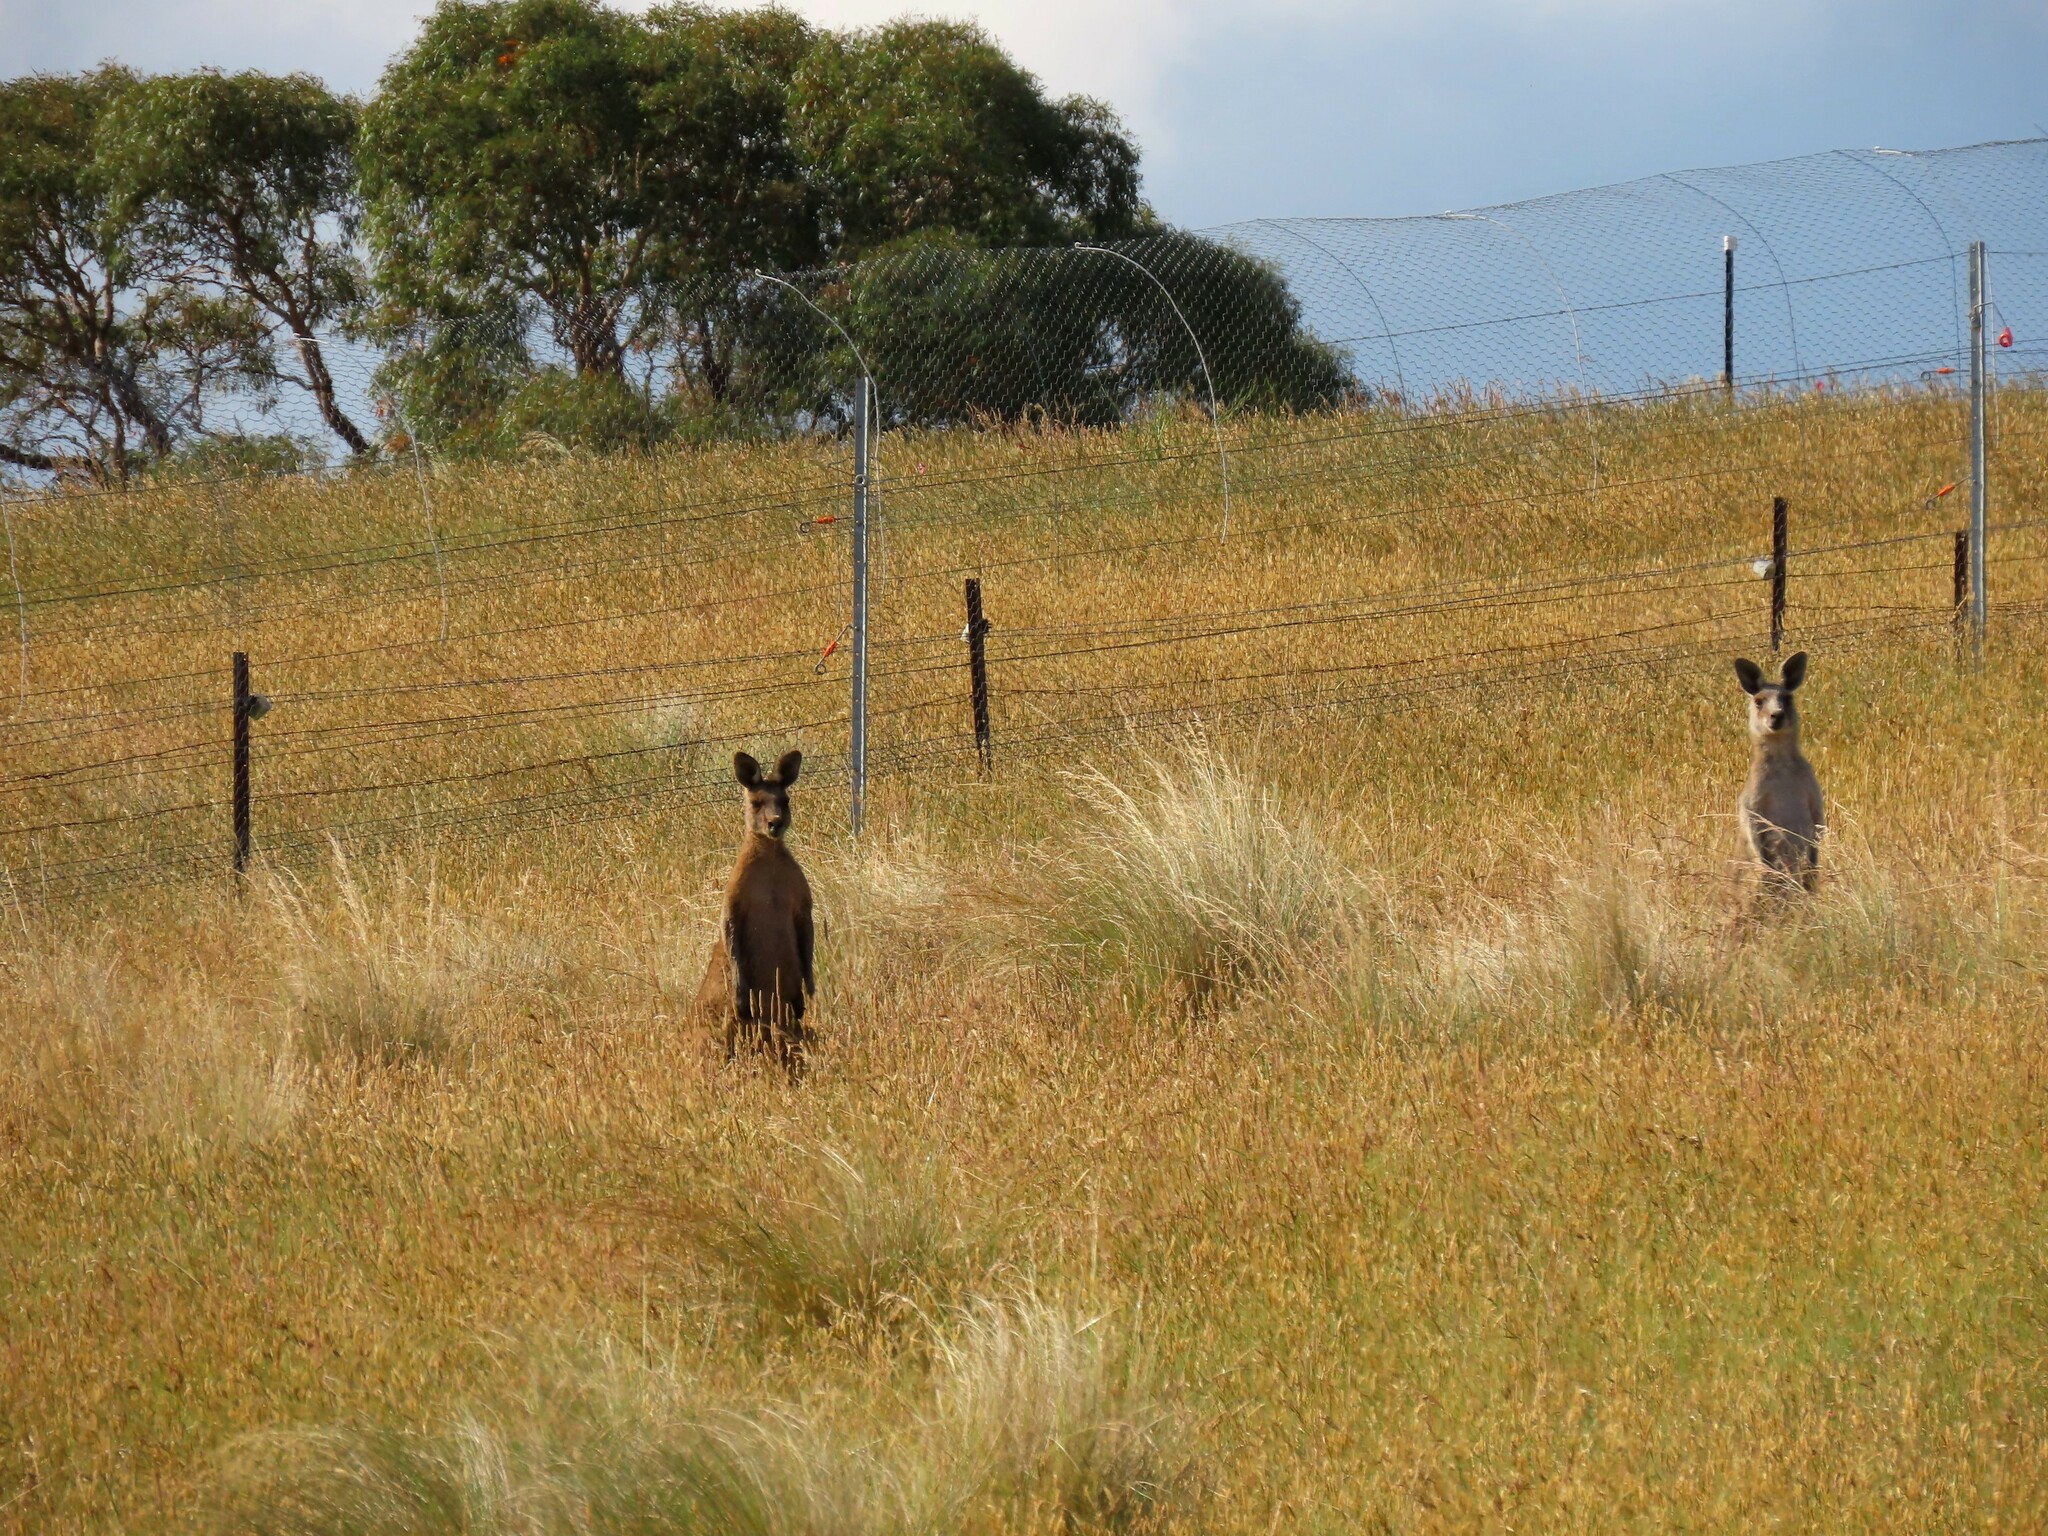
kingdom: Animalia
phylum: Chordata
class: Mammalia
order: Diprotodontia
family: Macropodidae
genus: Macropus
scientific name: Macropus giganteus
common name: Eastern grey kangaroo
